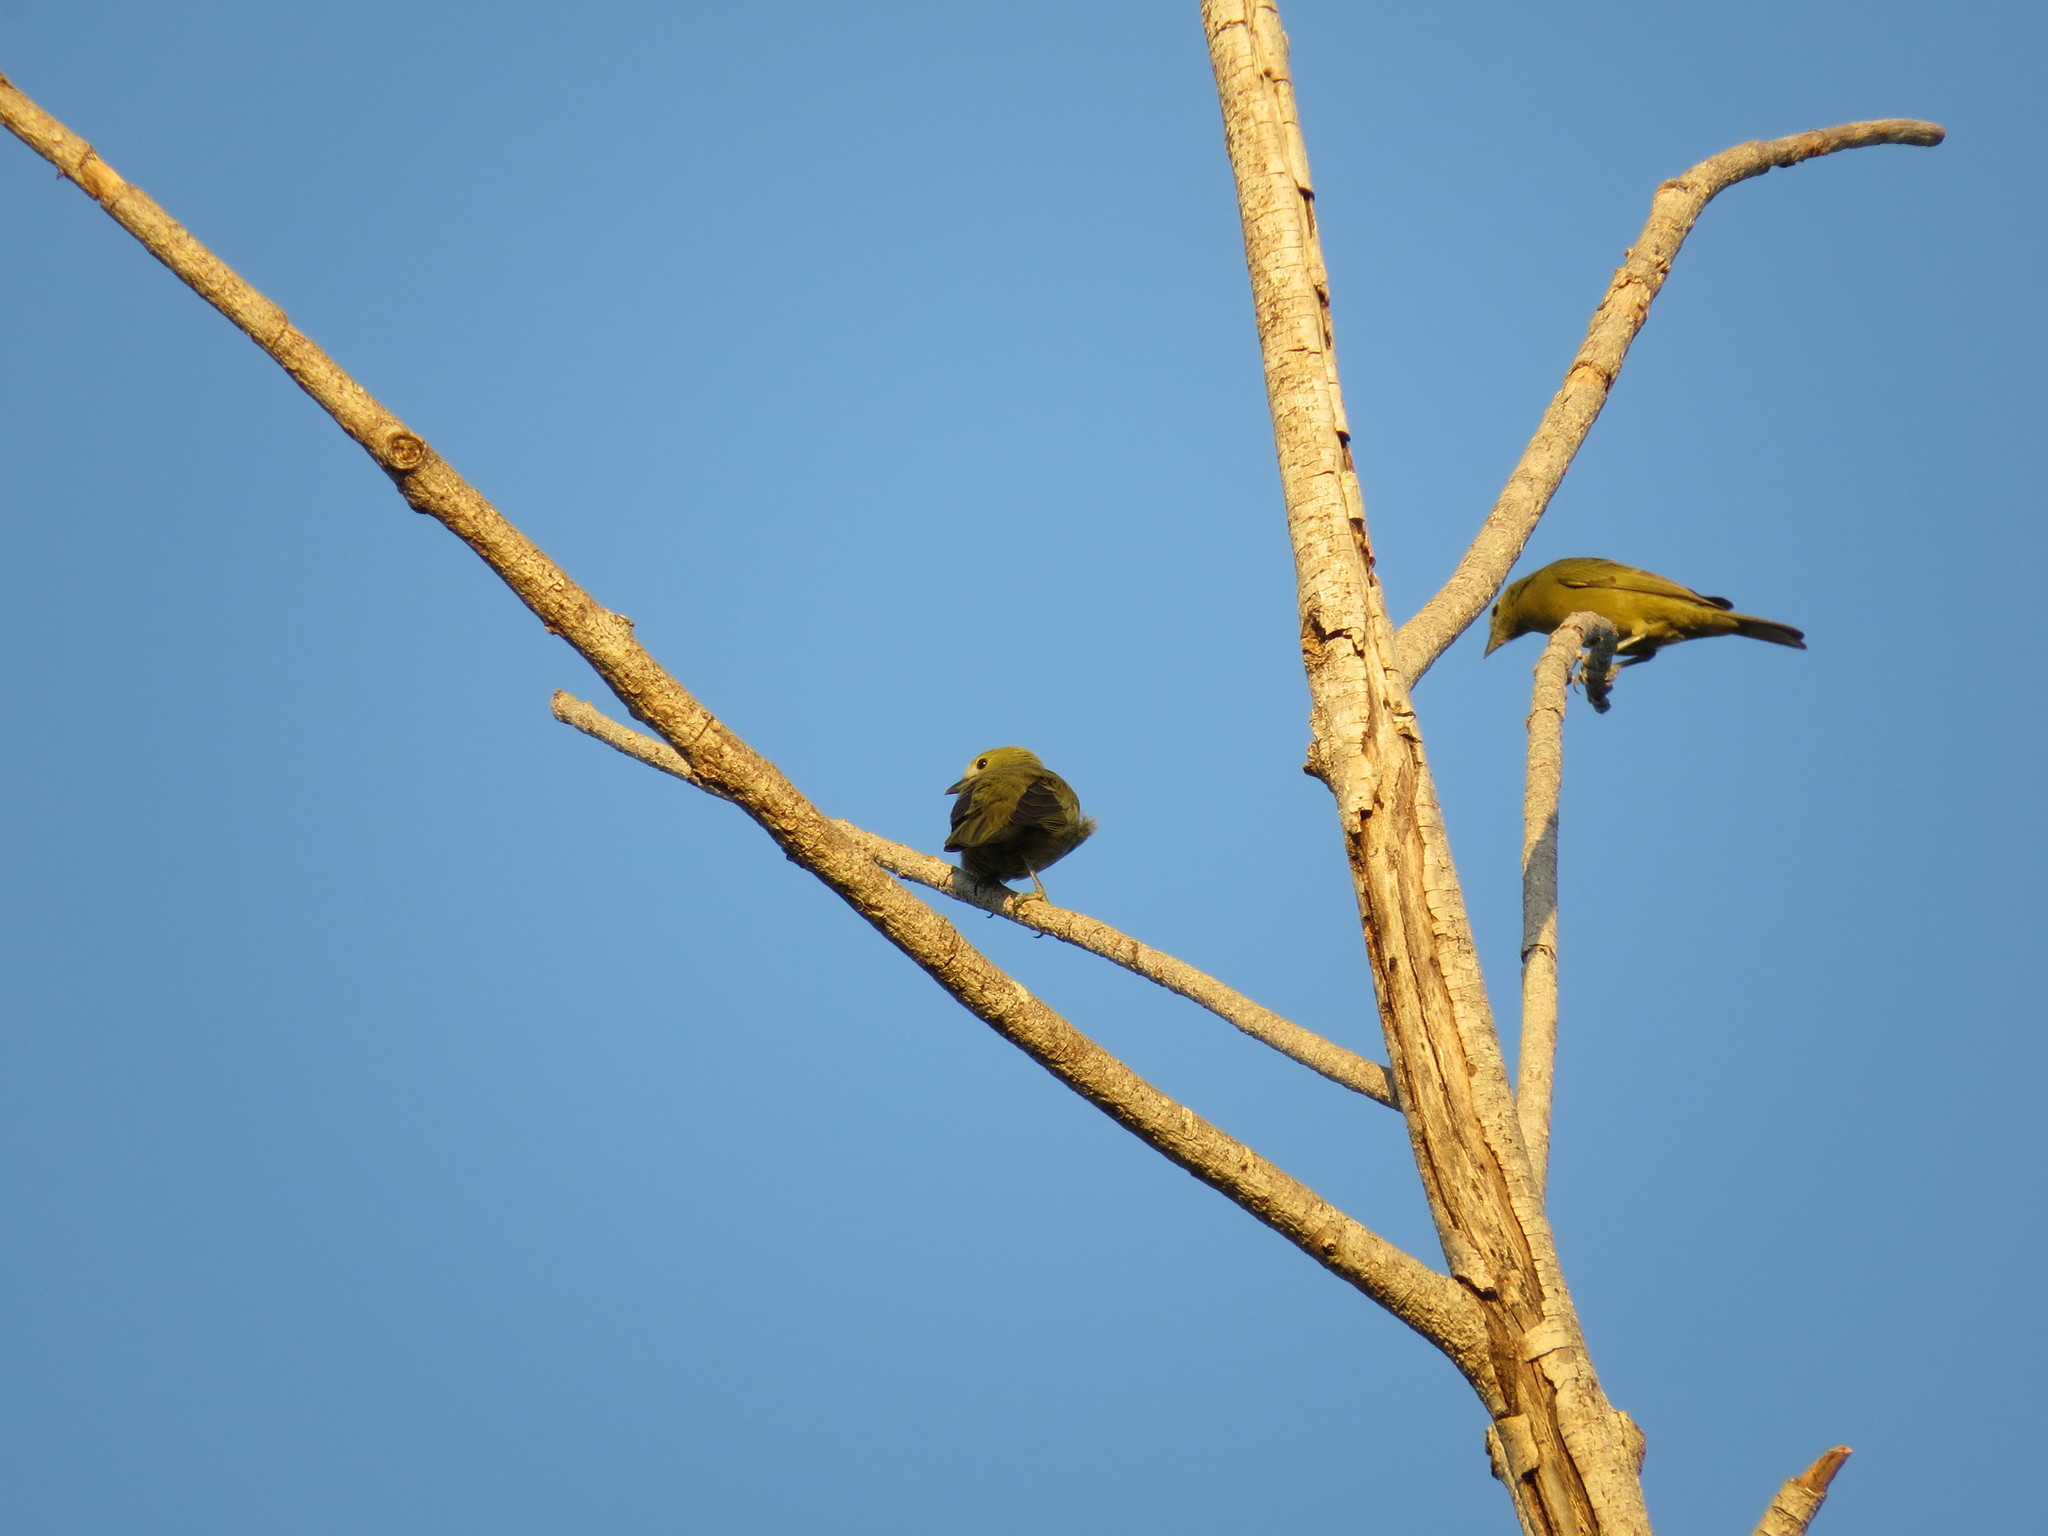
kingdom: Animalia
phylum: Chordata
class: Aves
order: Passeriformes
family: Thraupidae
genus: Thraupis
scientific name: Thraupis palmarum
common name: Palm tanager
